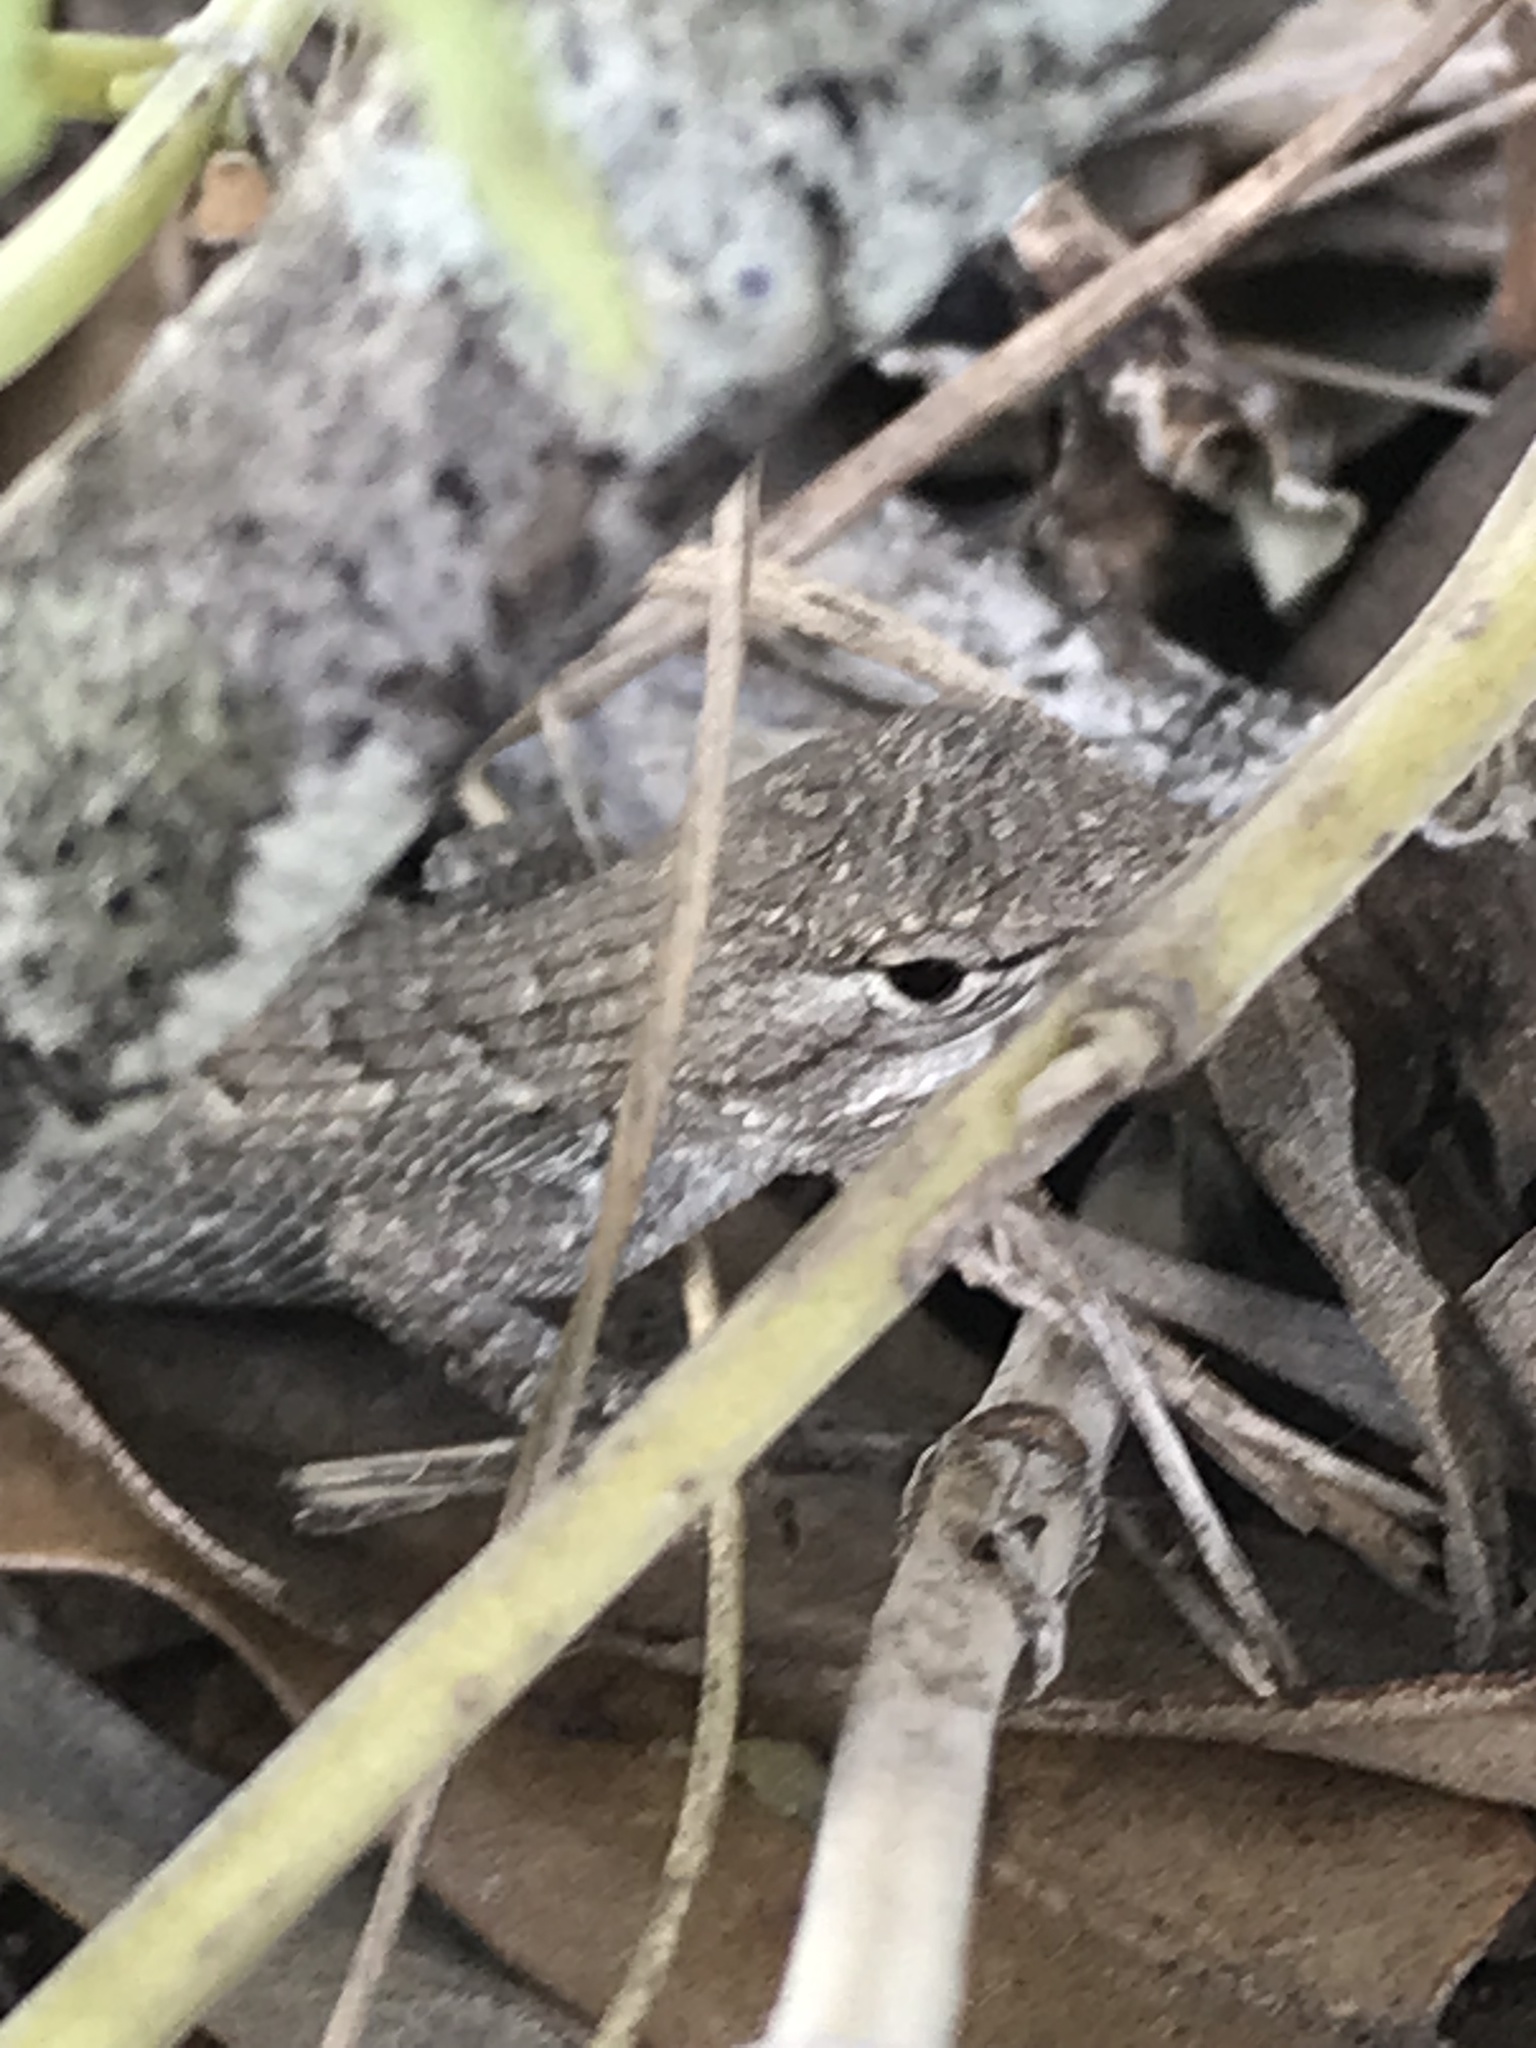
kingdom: Animalia
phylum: Chordata
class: Squamata
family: Phrynosomatidae
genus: Sceloporus
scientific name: Sceloporus consobrinus
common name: Southern prairie lizard
